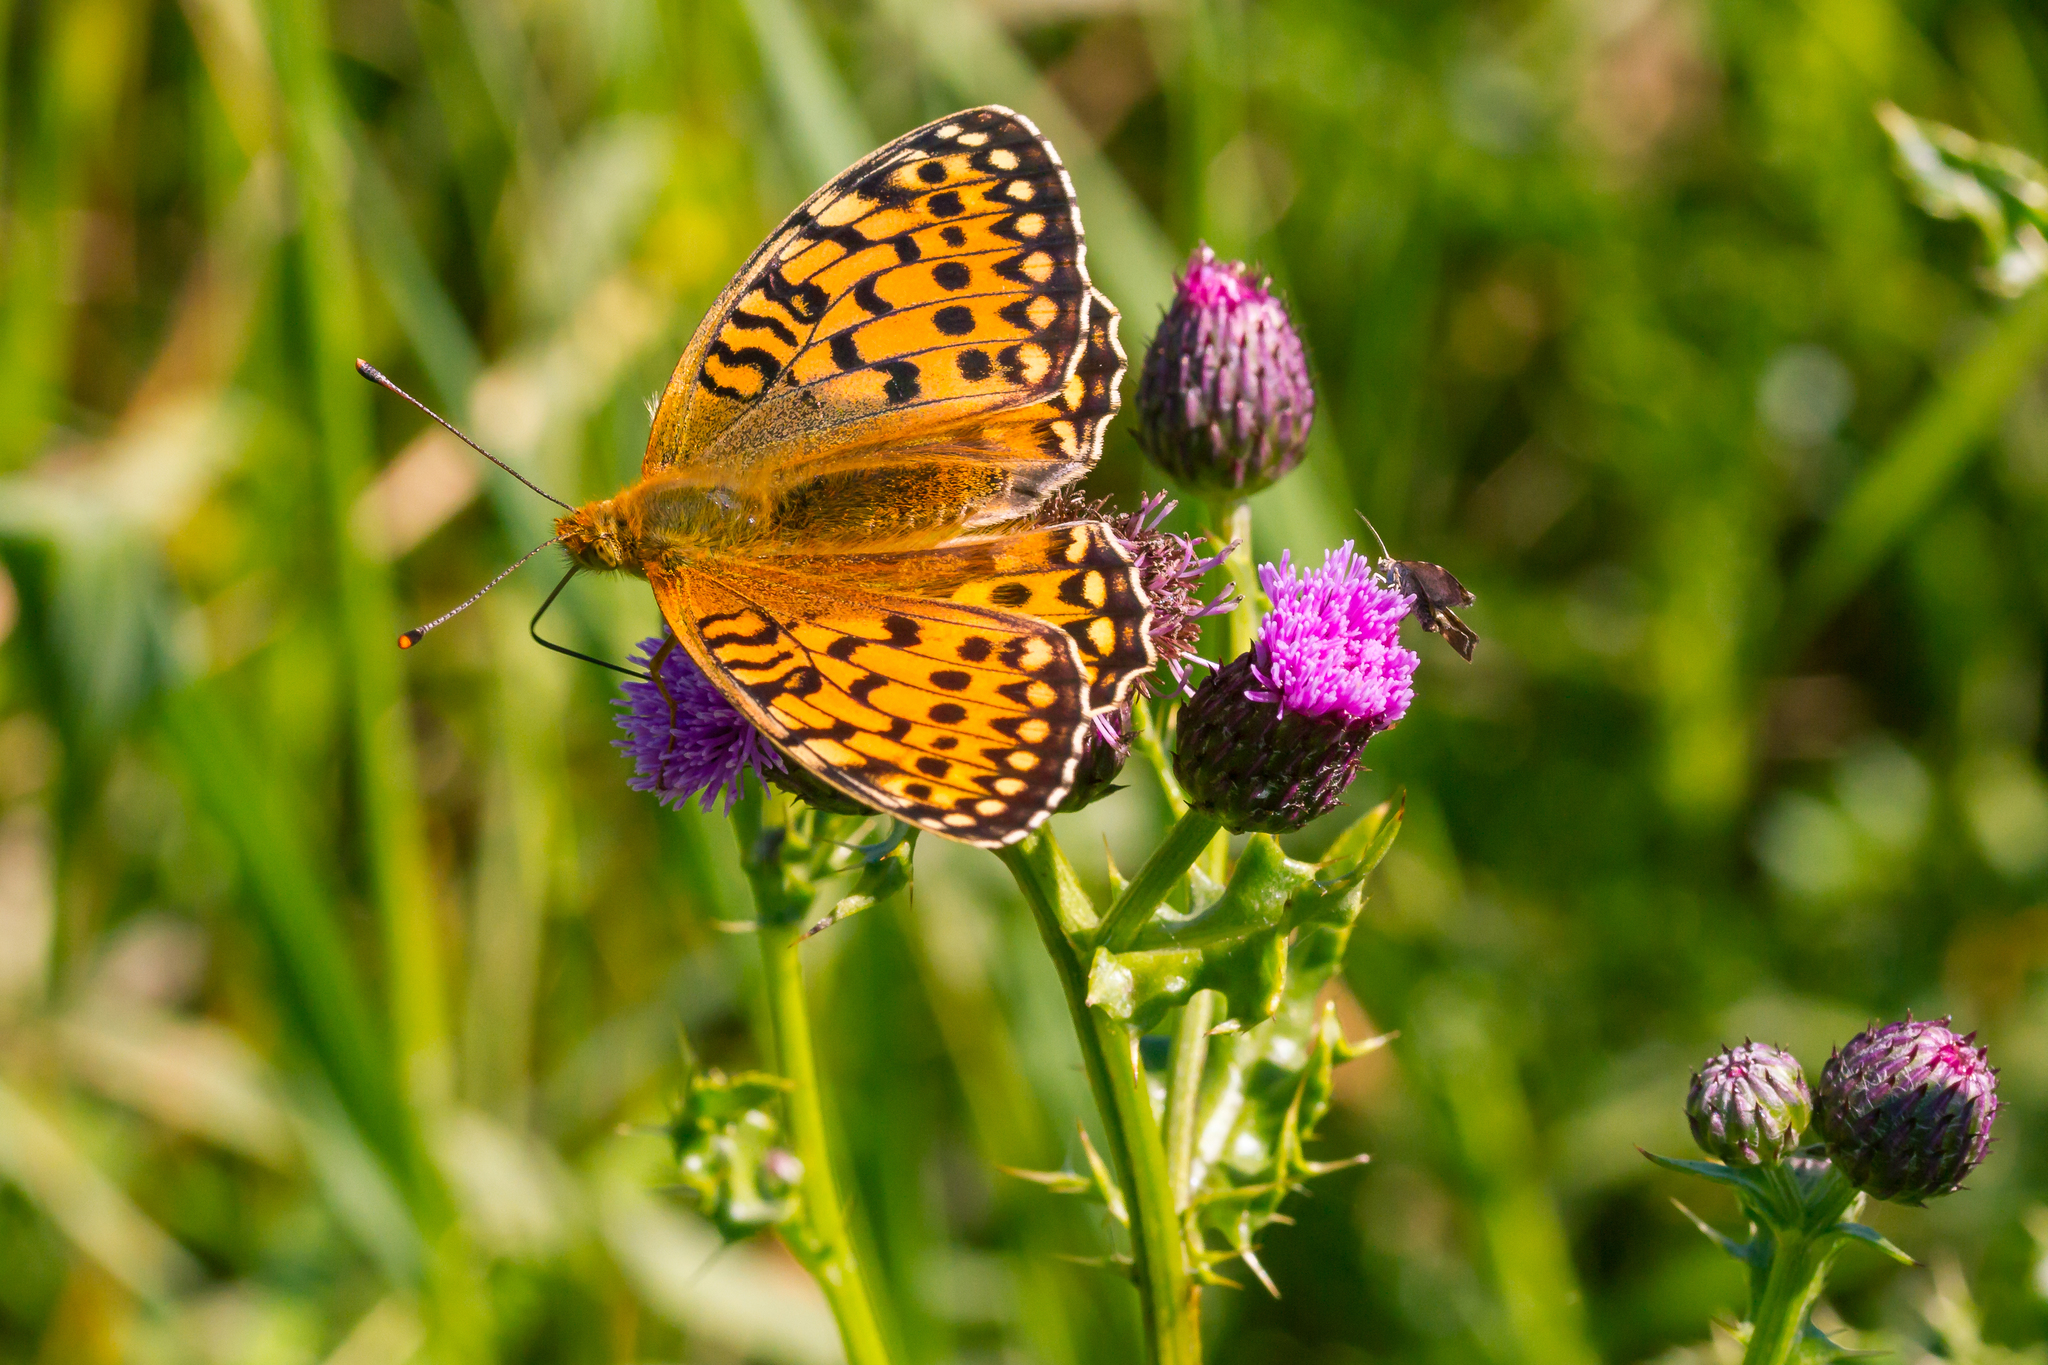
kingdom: Animalia
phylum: Arthropoda
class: Insecta
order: Lepidoptera
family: Nymphalidae
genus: Speyeria
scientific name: Speyeria aglaja
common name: Dark green fritillary
